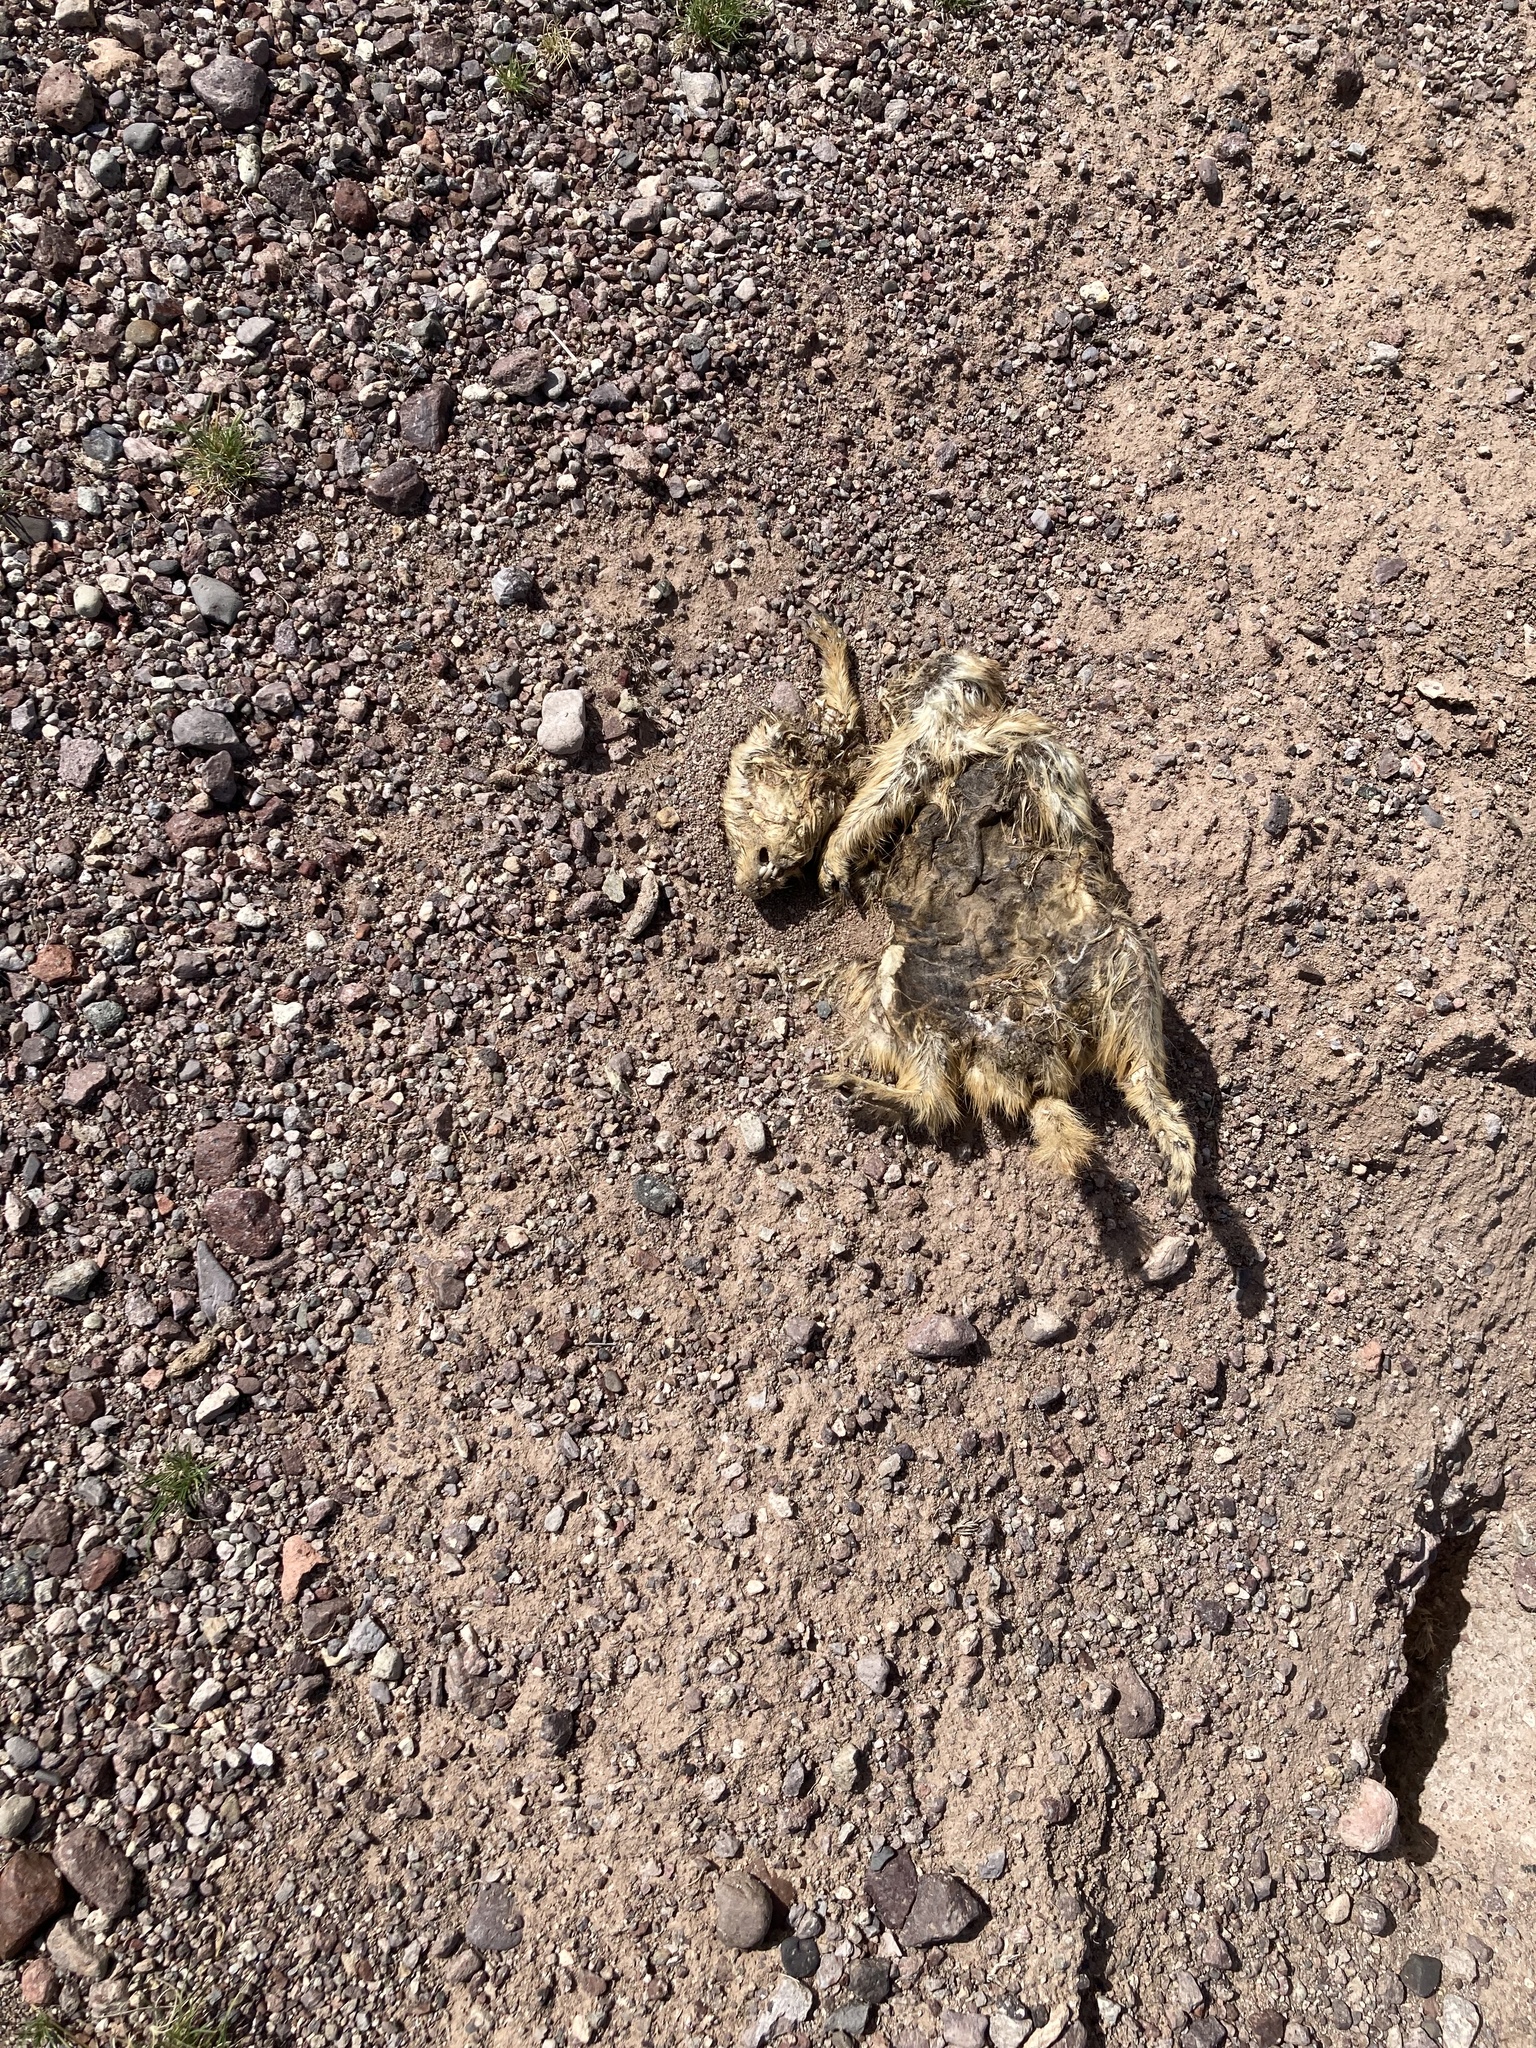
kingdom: Animalia
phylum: Chordata
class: Mammalia
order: Rodentia
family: Sciuridae
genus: Cynomys
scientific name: Cynomys gunnisoni
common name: Gunnison's prairie dog
